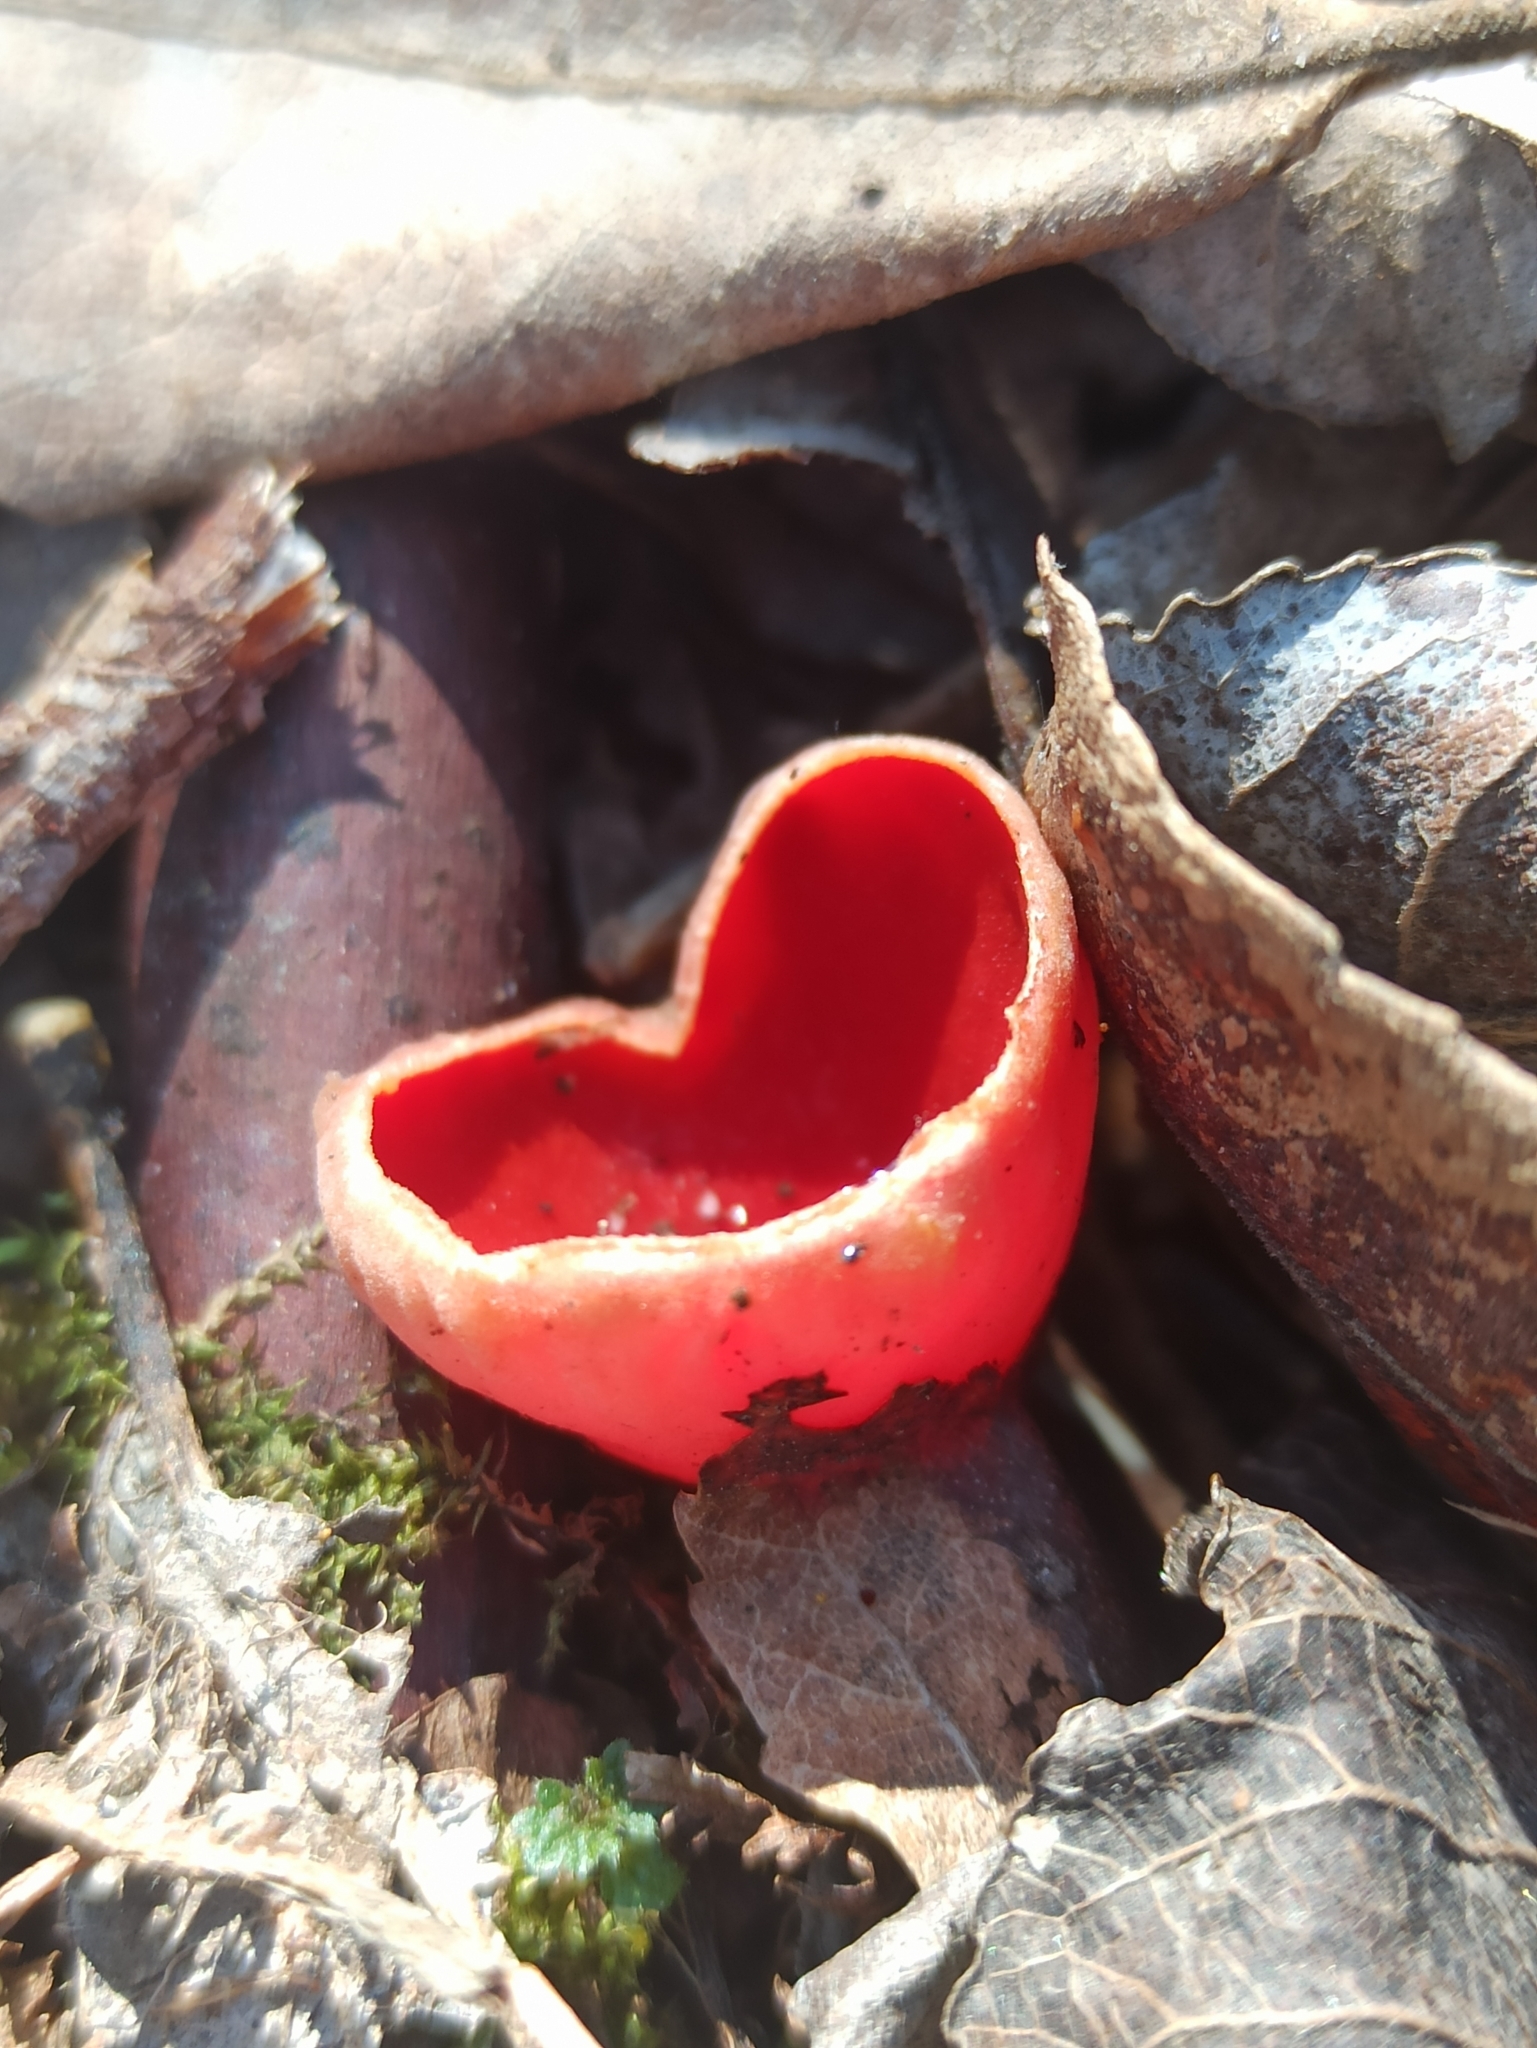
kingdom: Fungi
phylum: Ascomycota
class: Pezizomycetes
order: Pezizales
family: Sarcoscyphaceae
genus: Sarcoscypha
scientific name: Sarcoscypha austriaca
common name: Scarlet elfcup
